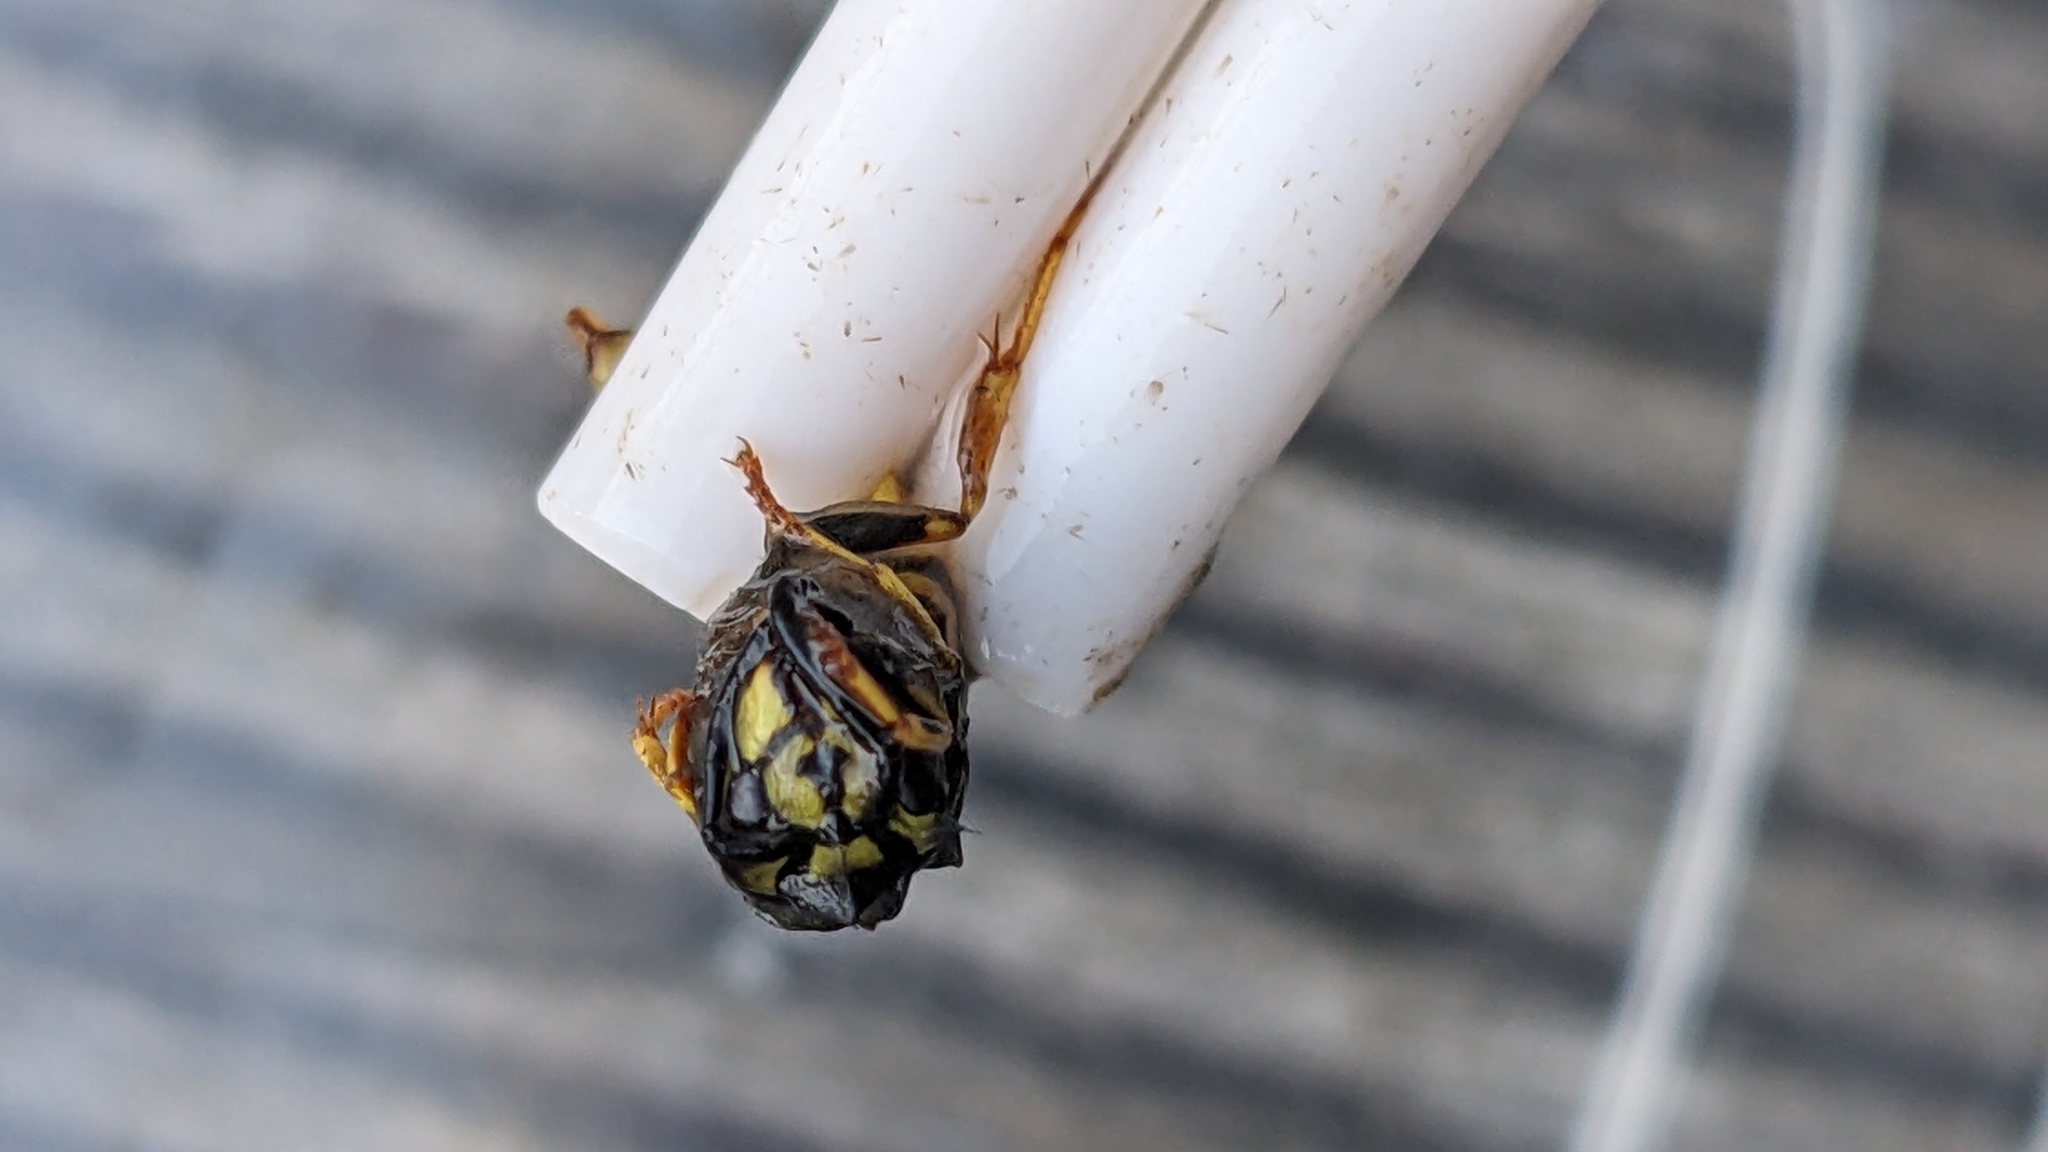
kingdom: Animalia
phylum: Arthropoda
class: Insecta
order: Hymenoptera
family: Vespidae
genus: Vespula
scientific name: Vespula vulgaris
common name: Common wasp
